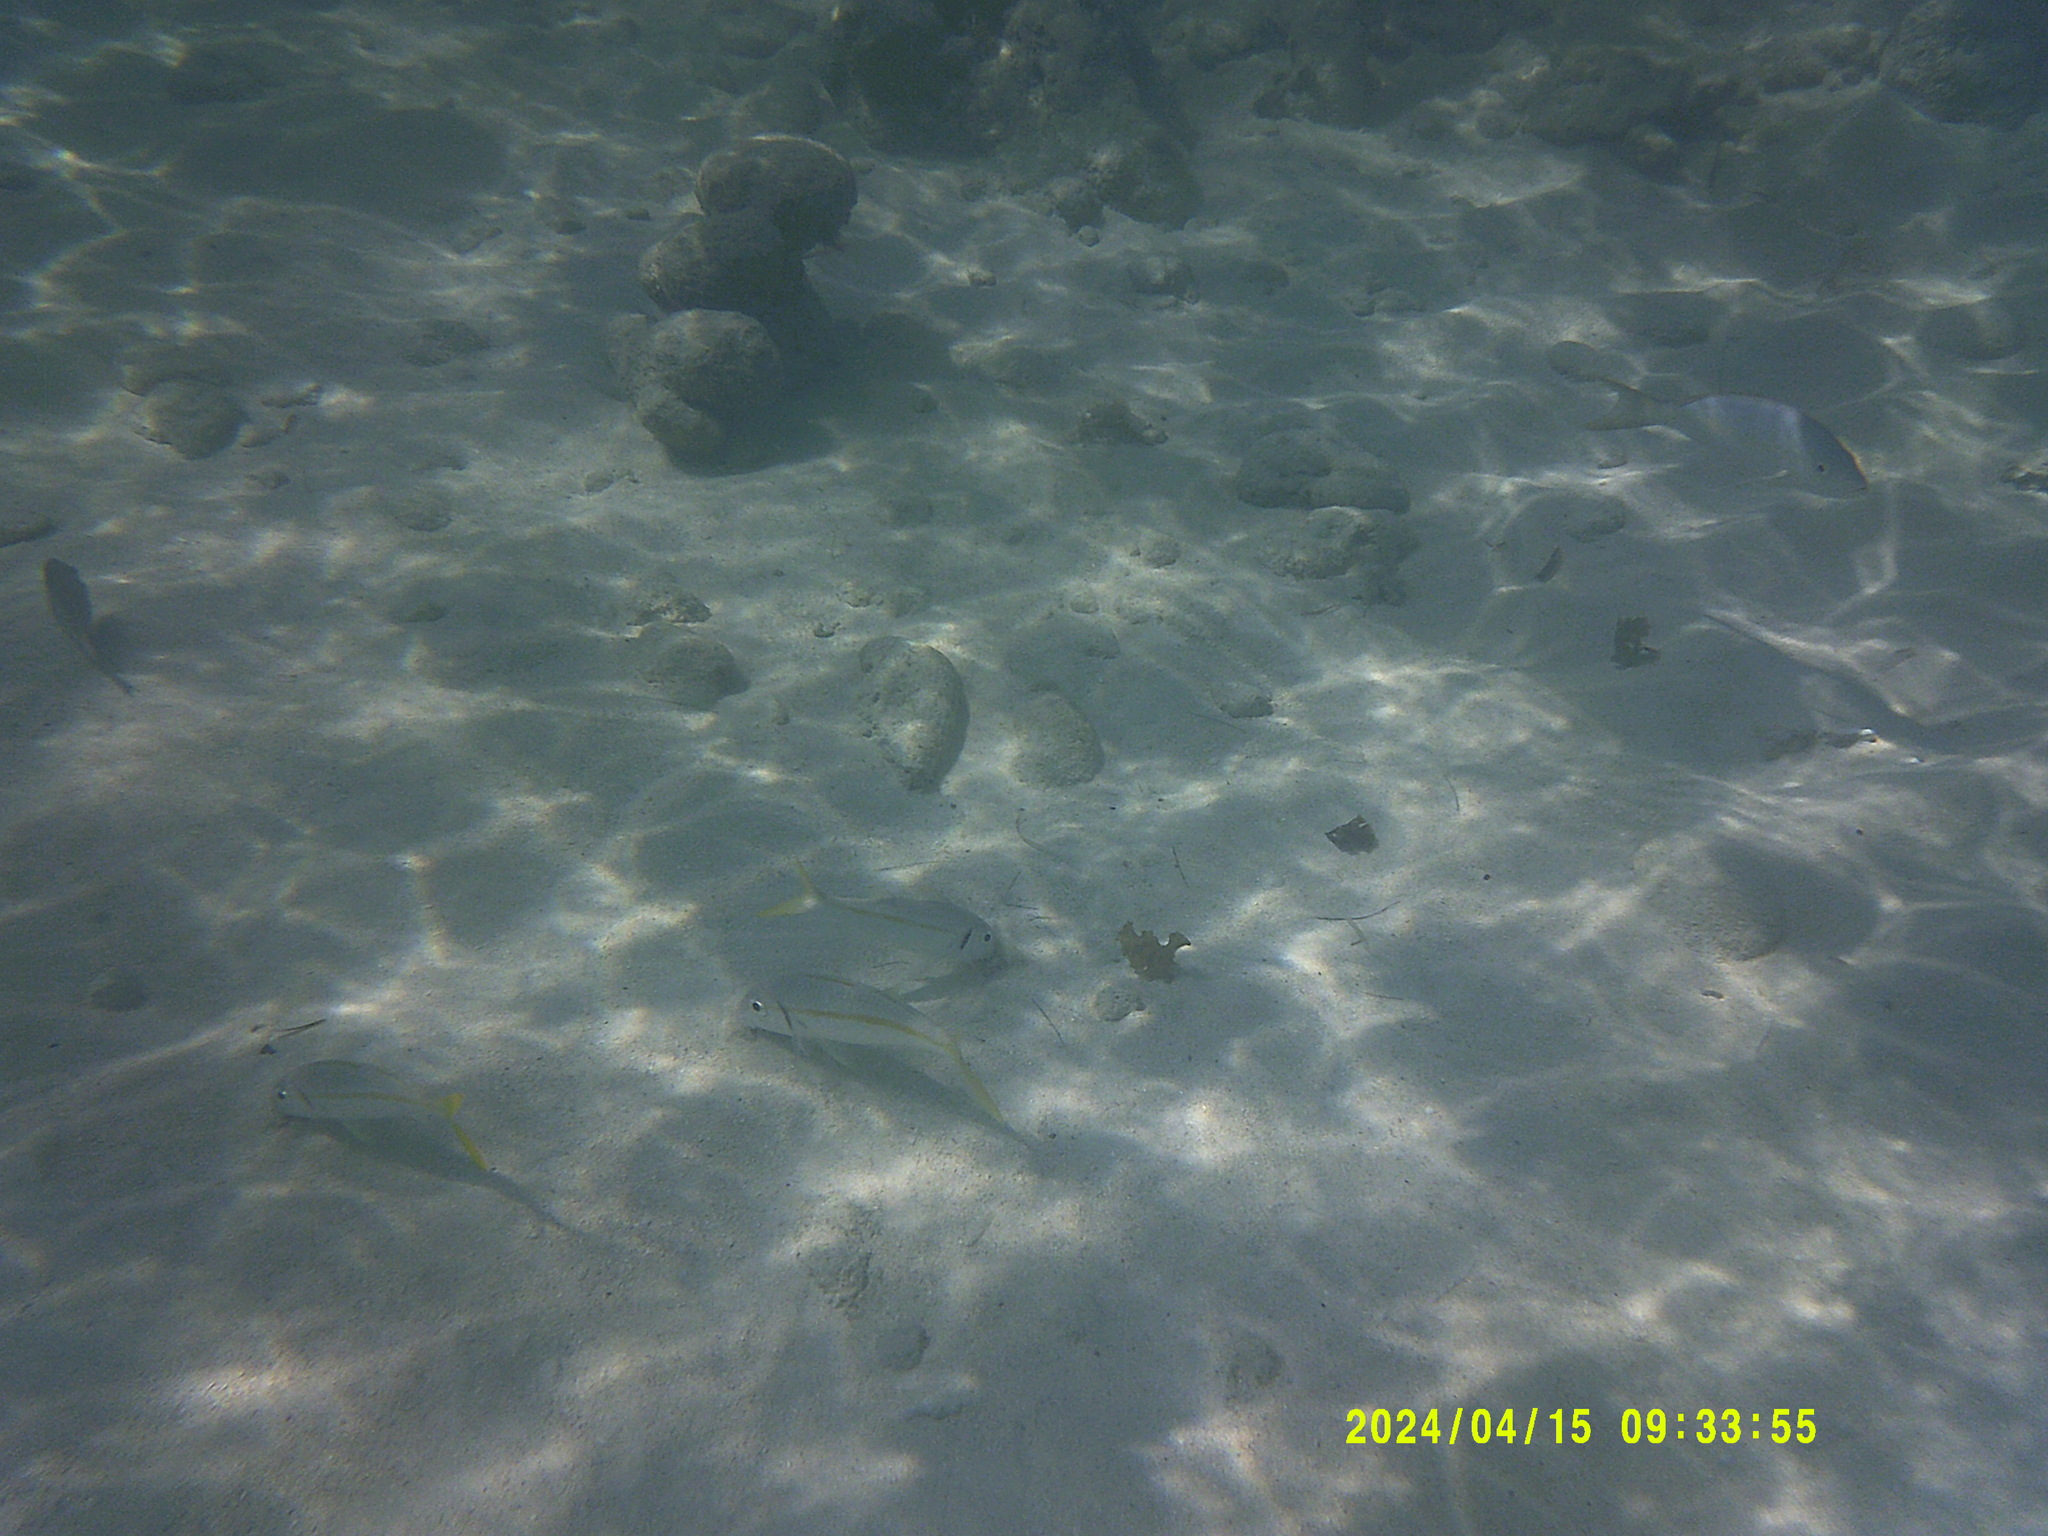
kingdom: Animalia
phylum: Chordata
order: Perciformes
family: Mullidae
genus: Mulloidichthys
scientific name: Mulloidichthys martinicus
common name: Yellow goatfish
